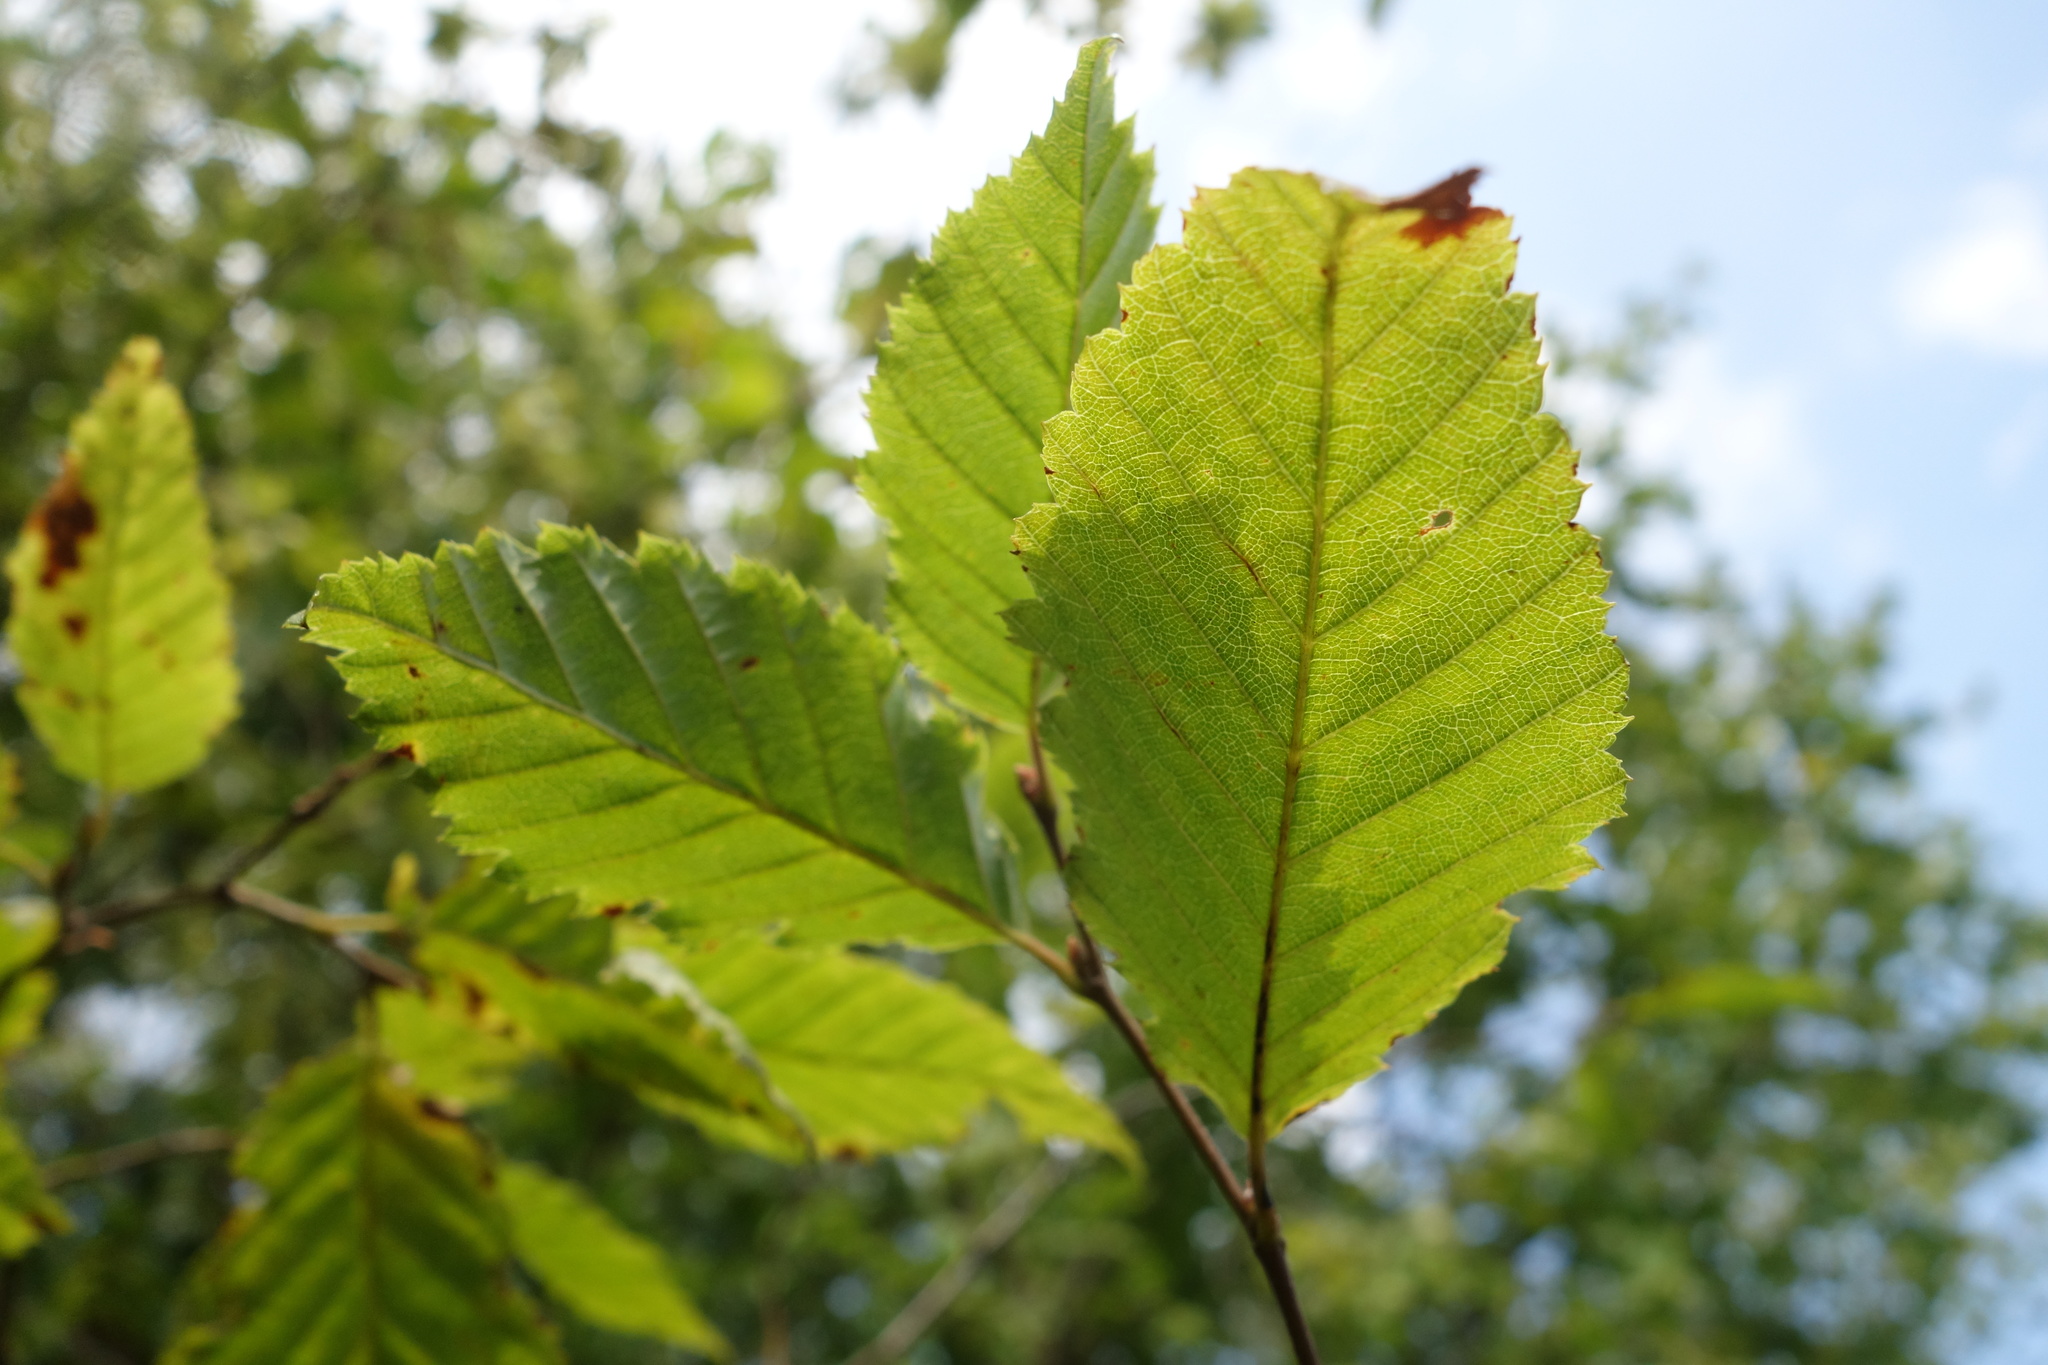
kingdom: Plantae
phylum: Tracheophyta
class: Magnoliopsida
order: Fagales
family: Betulaceae
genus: Carpinus
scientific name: Carpinus betulus
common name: Hornbeam
